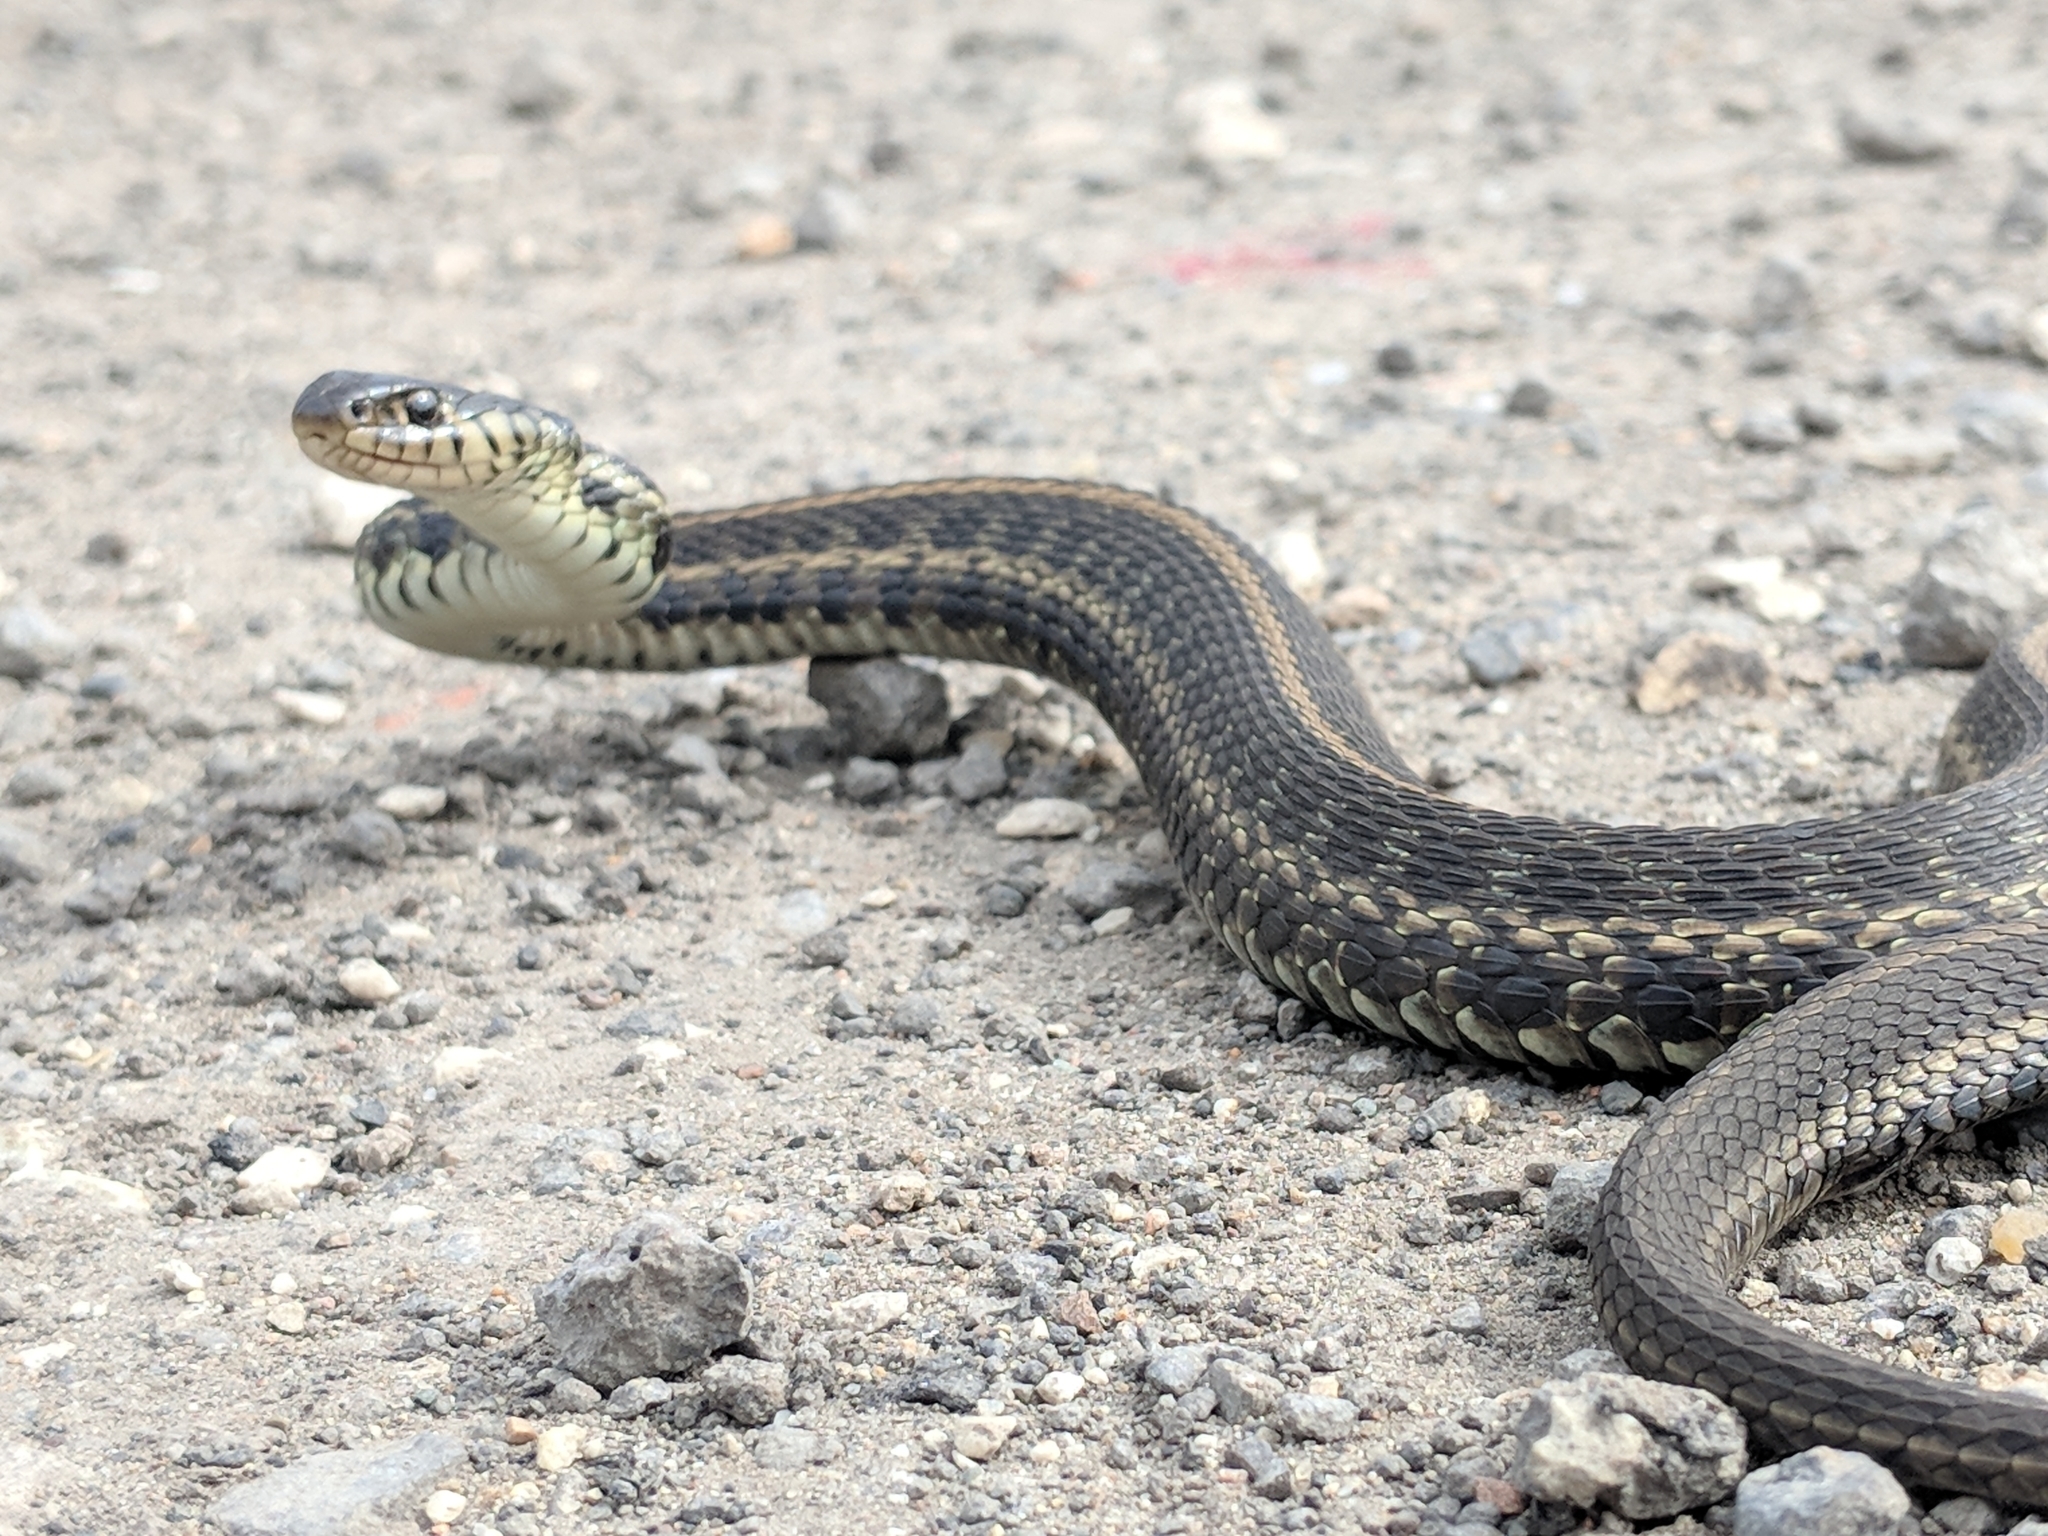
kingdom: Animalia
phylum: Chordata
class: Squamata
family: Colubridae
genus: Thamnophis
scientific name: Thamnophis radix
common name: Plains garter snake
